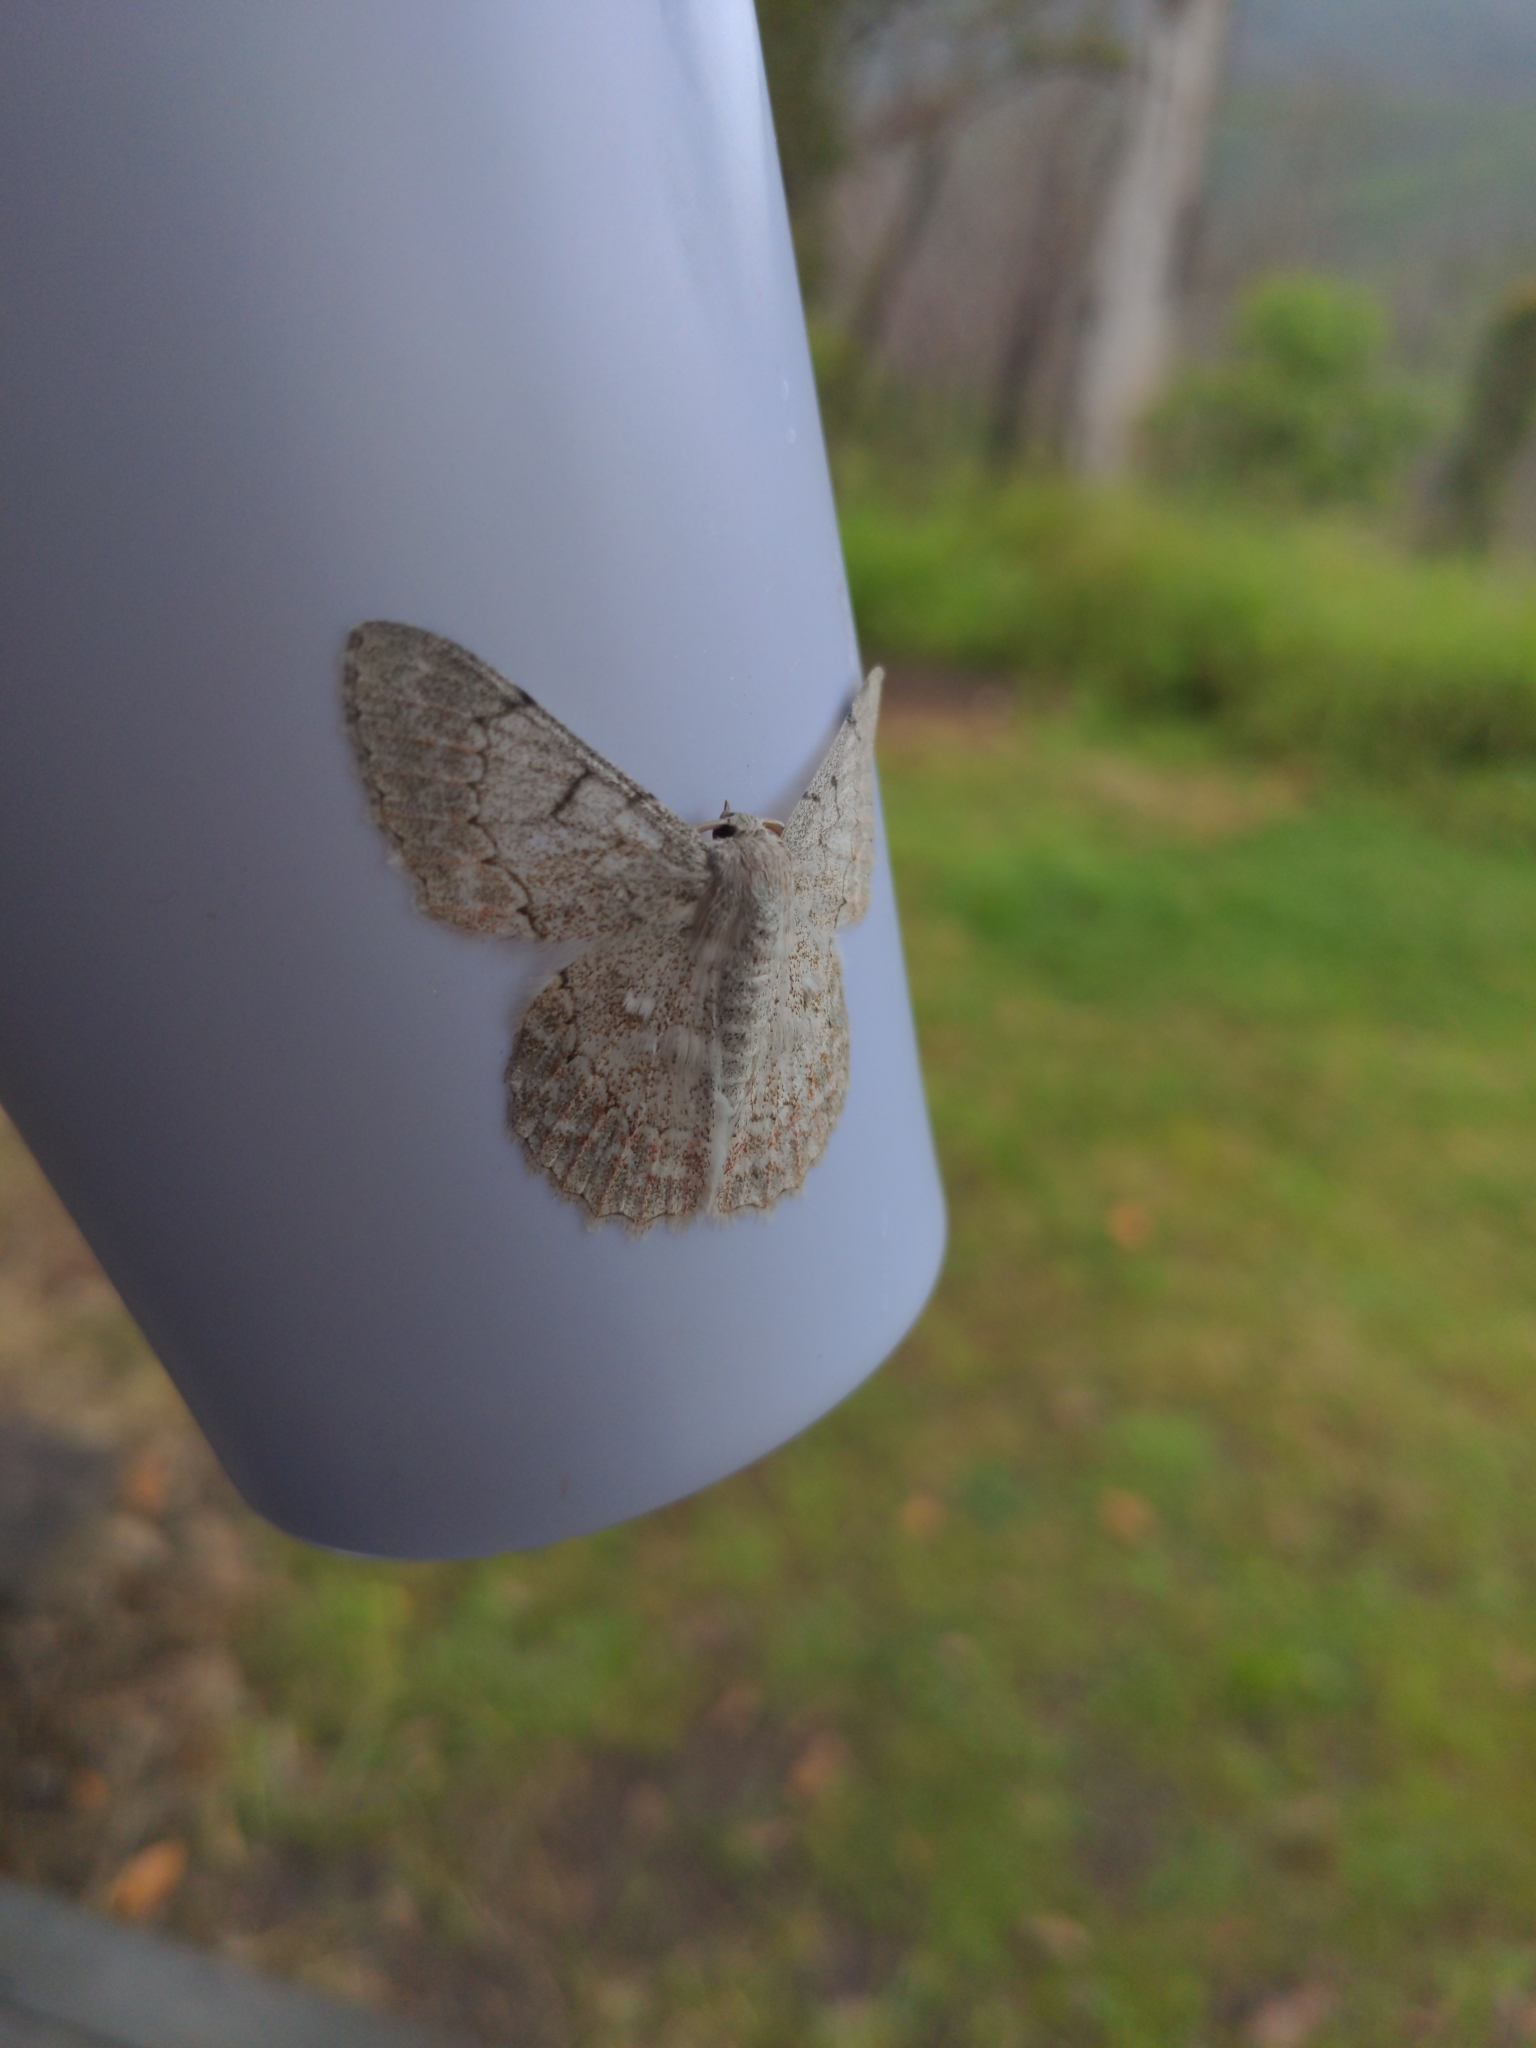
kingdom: Animalia
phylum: Arthropoda
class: Insecta
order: Lepidoptera
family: Geometridae
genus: Pingasa
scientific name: Pingasa chlora
